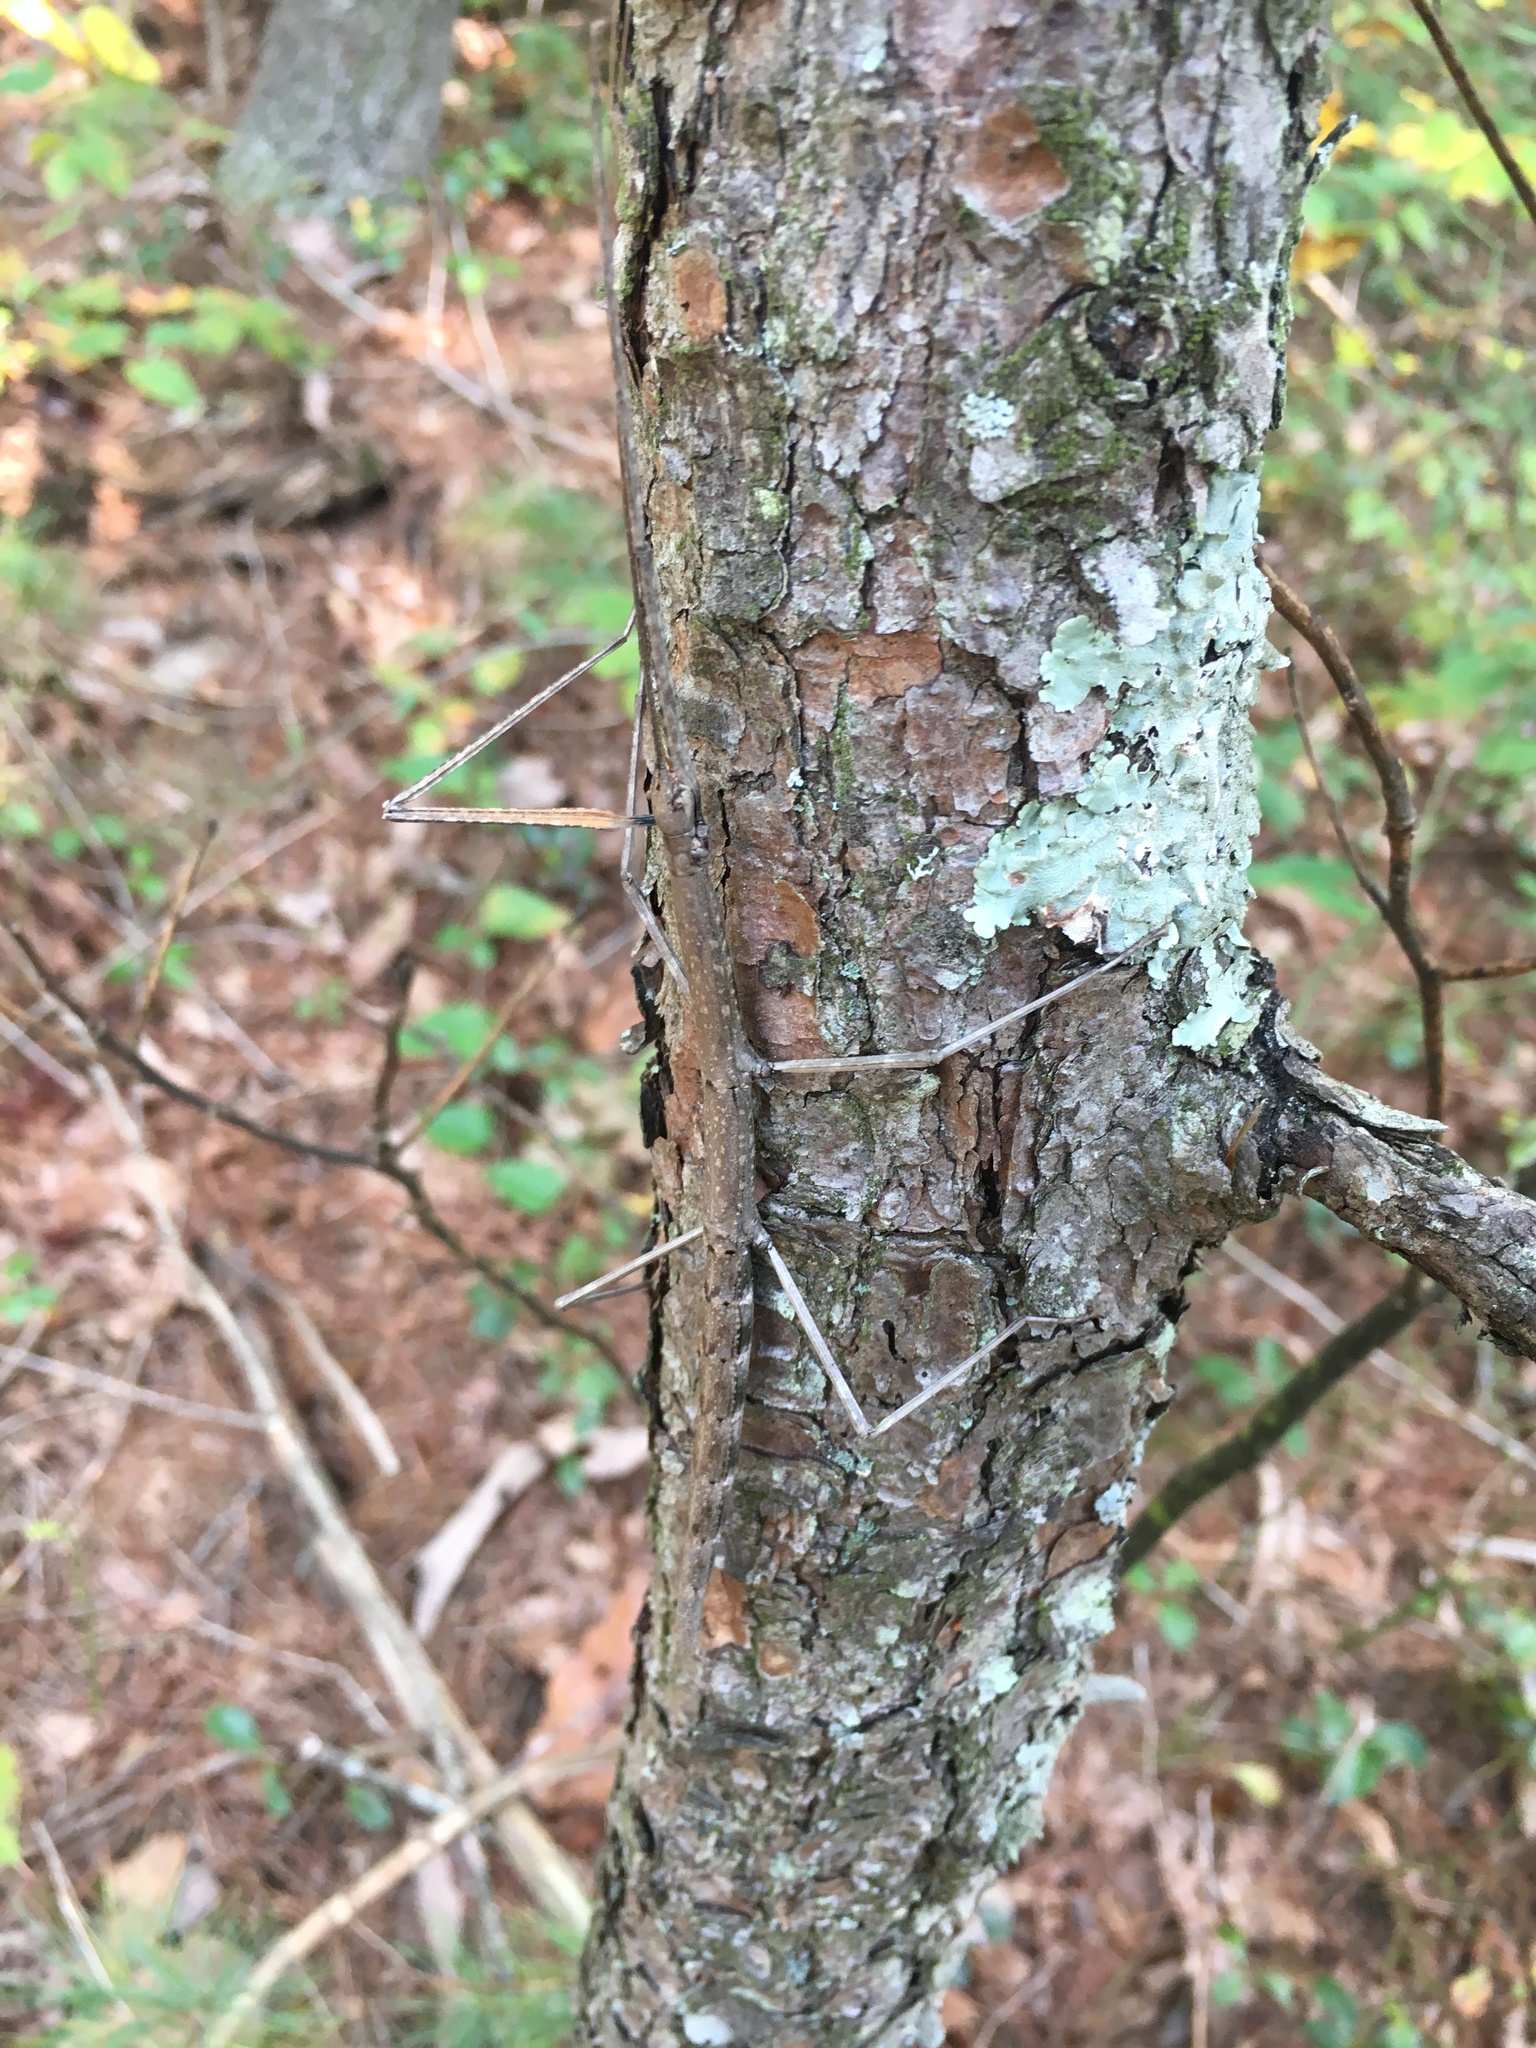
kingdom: Animalia
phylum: Arthropoda
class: Insecta
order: Phasmida
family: Diapheromeridae
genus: Diapheromera
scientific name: Diapheromera femorata
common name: Common american walkingstick
